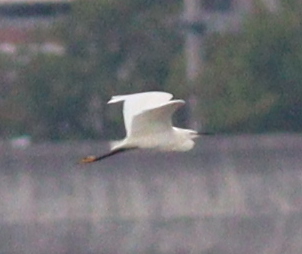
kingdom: Animalia
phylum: Chordata
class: Aves
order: Pelecaniformes
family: Ardeidae
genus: Egretta
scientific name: Egretta garzetta
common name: Little egret
